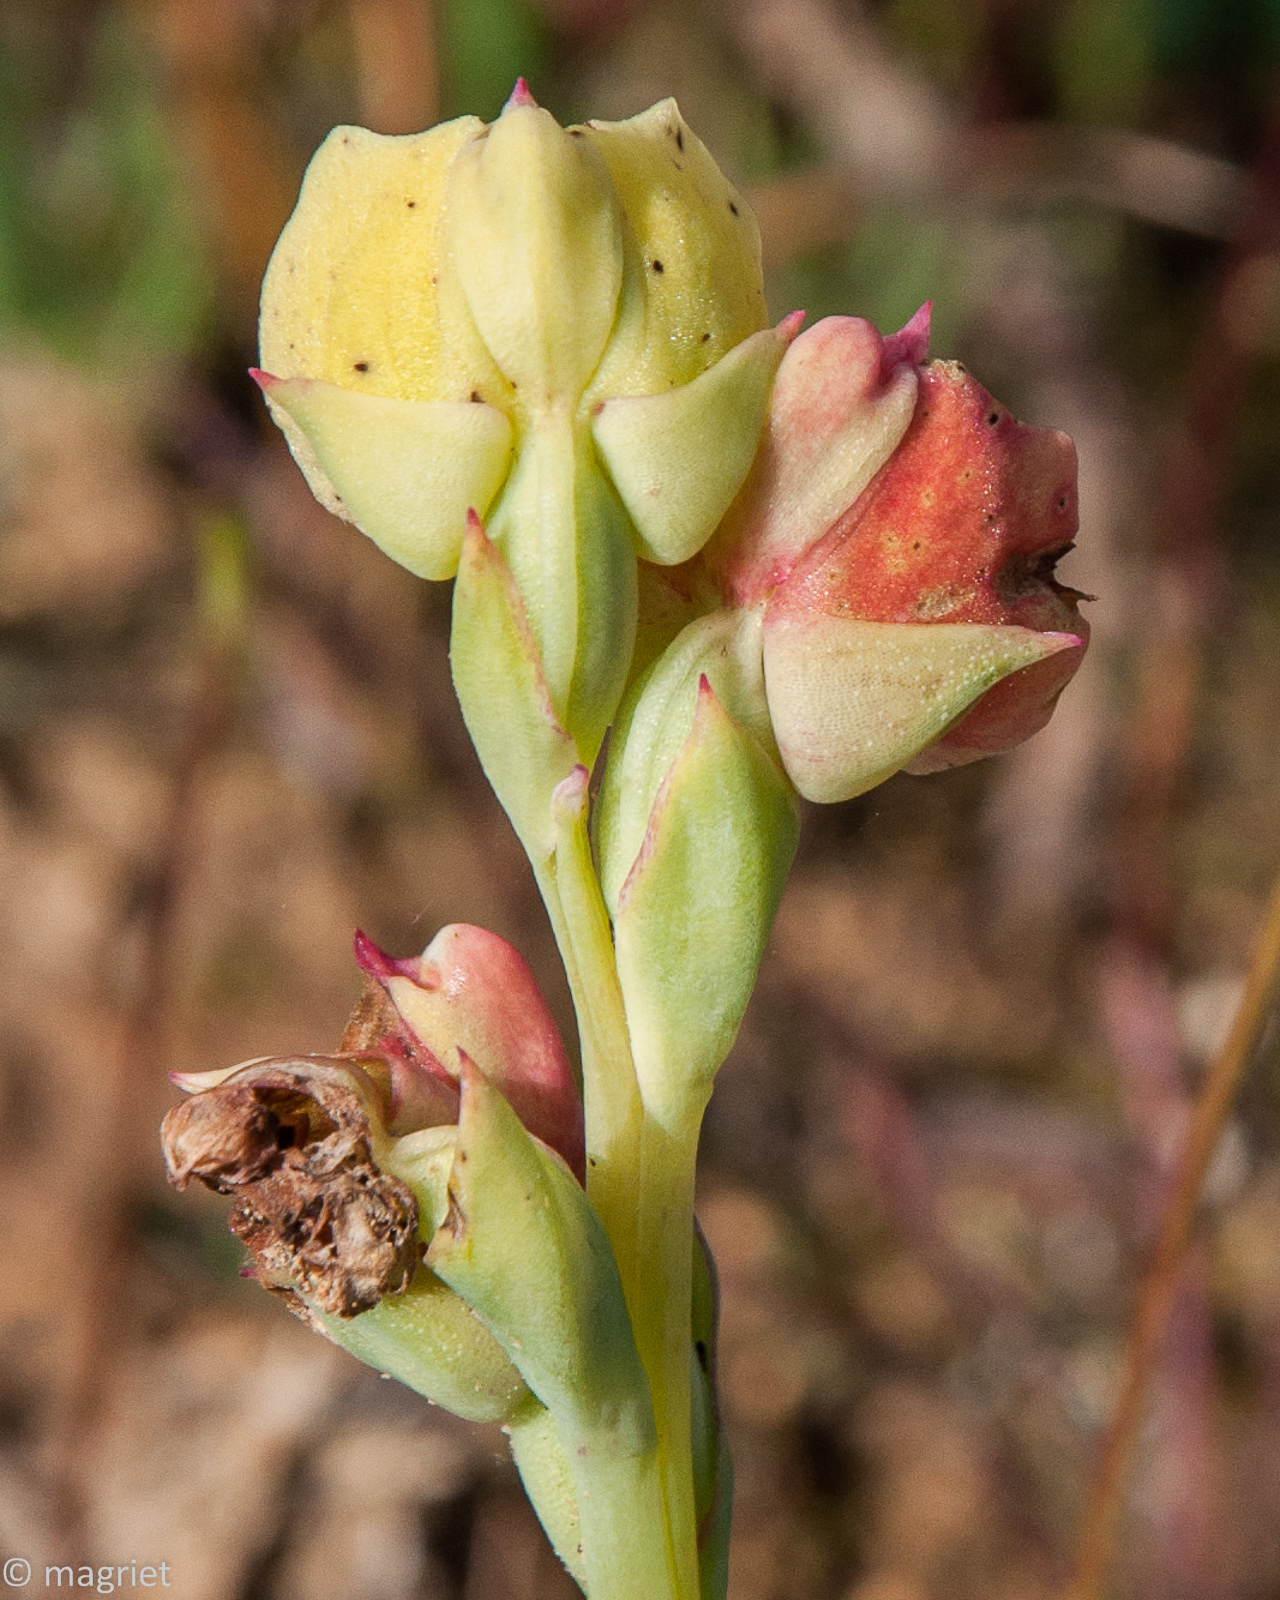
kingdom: Plantae
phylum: Tracheophyta
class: Liliopsida
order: Asparagales
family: Orchidaceae
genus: Pterygodium
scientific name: Pterygodium catholicum
